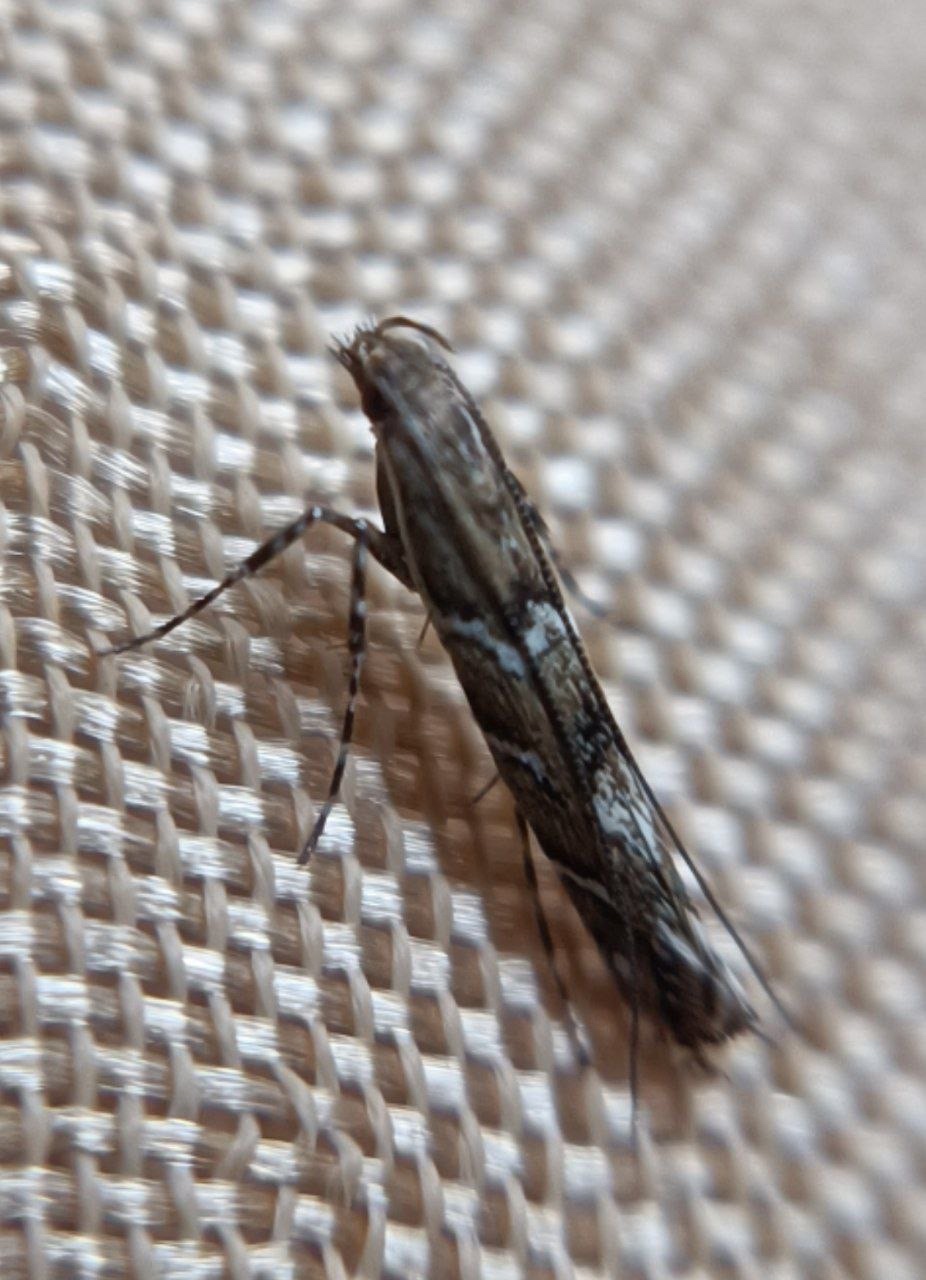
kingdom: Animalia
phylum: Arthropoda
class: Insecta
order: Lepidoptera
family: Gracillariidae
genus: Acrocercops
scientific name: Acrocercops brongniardella
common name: Brown oak slender
